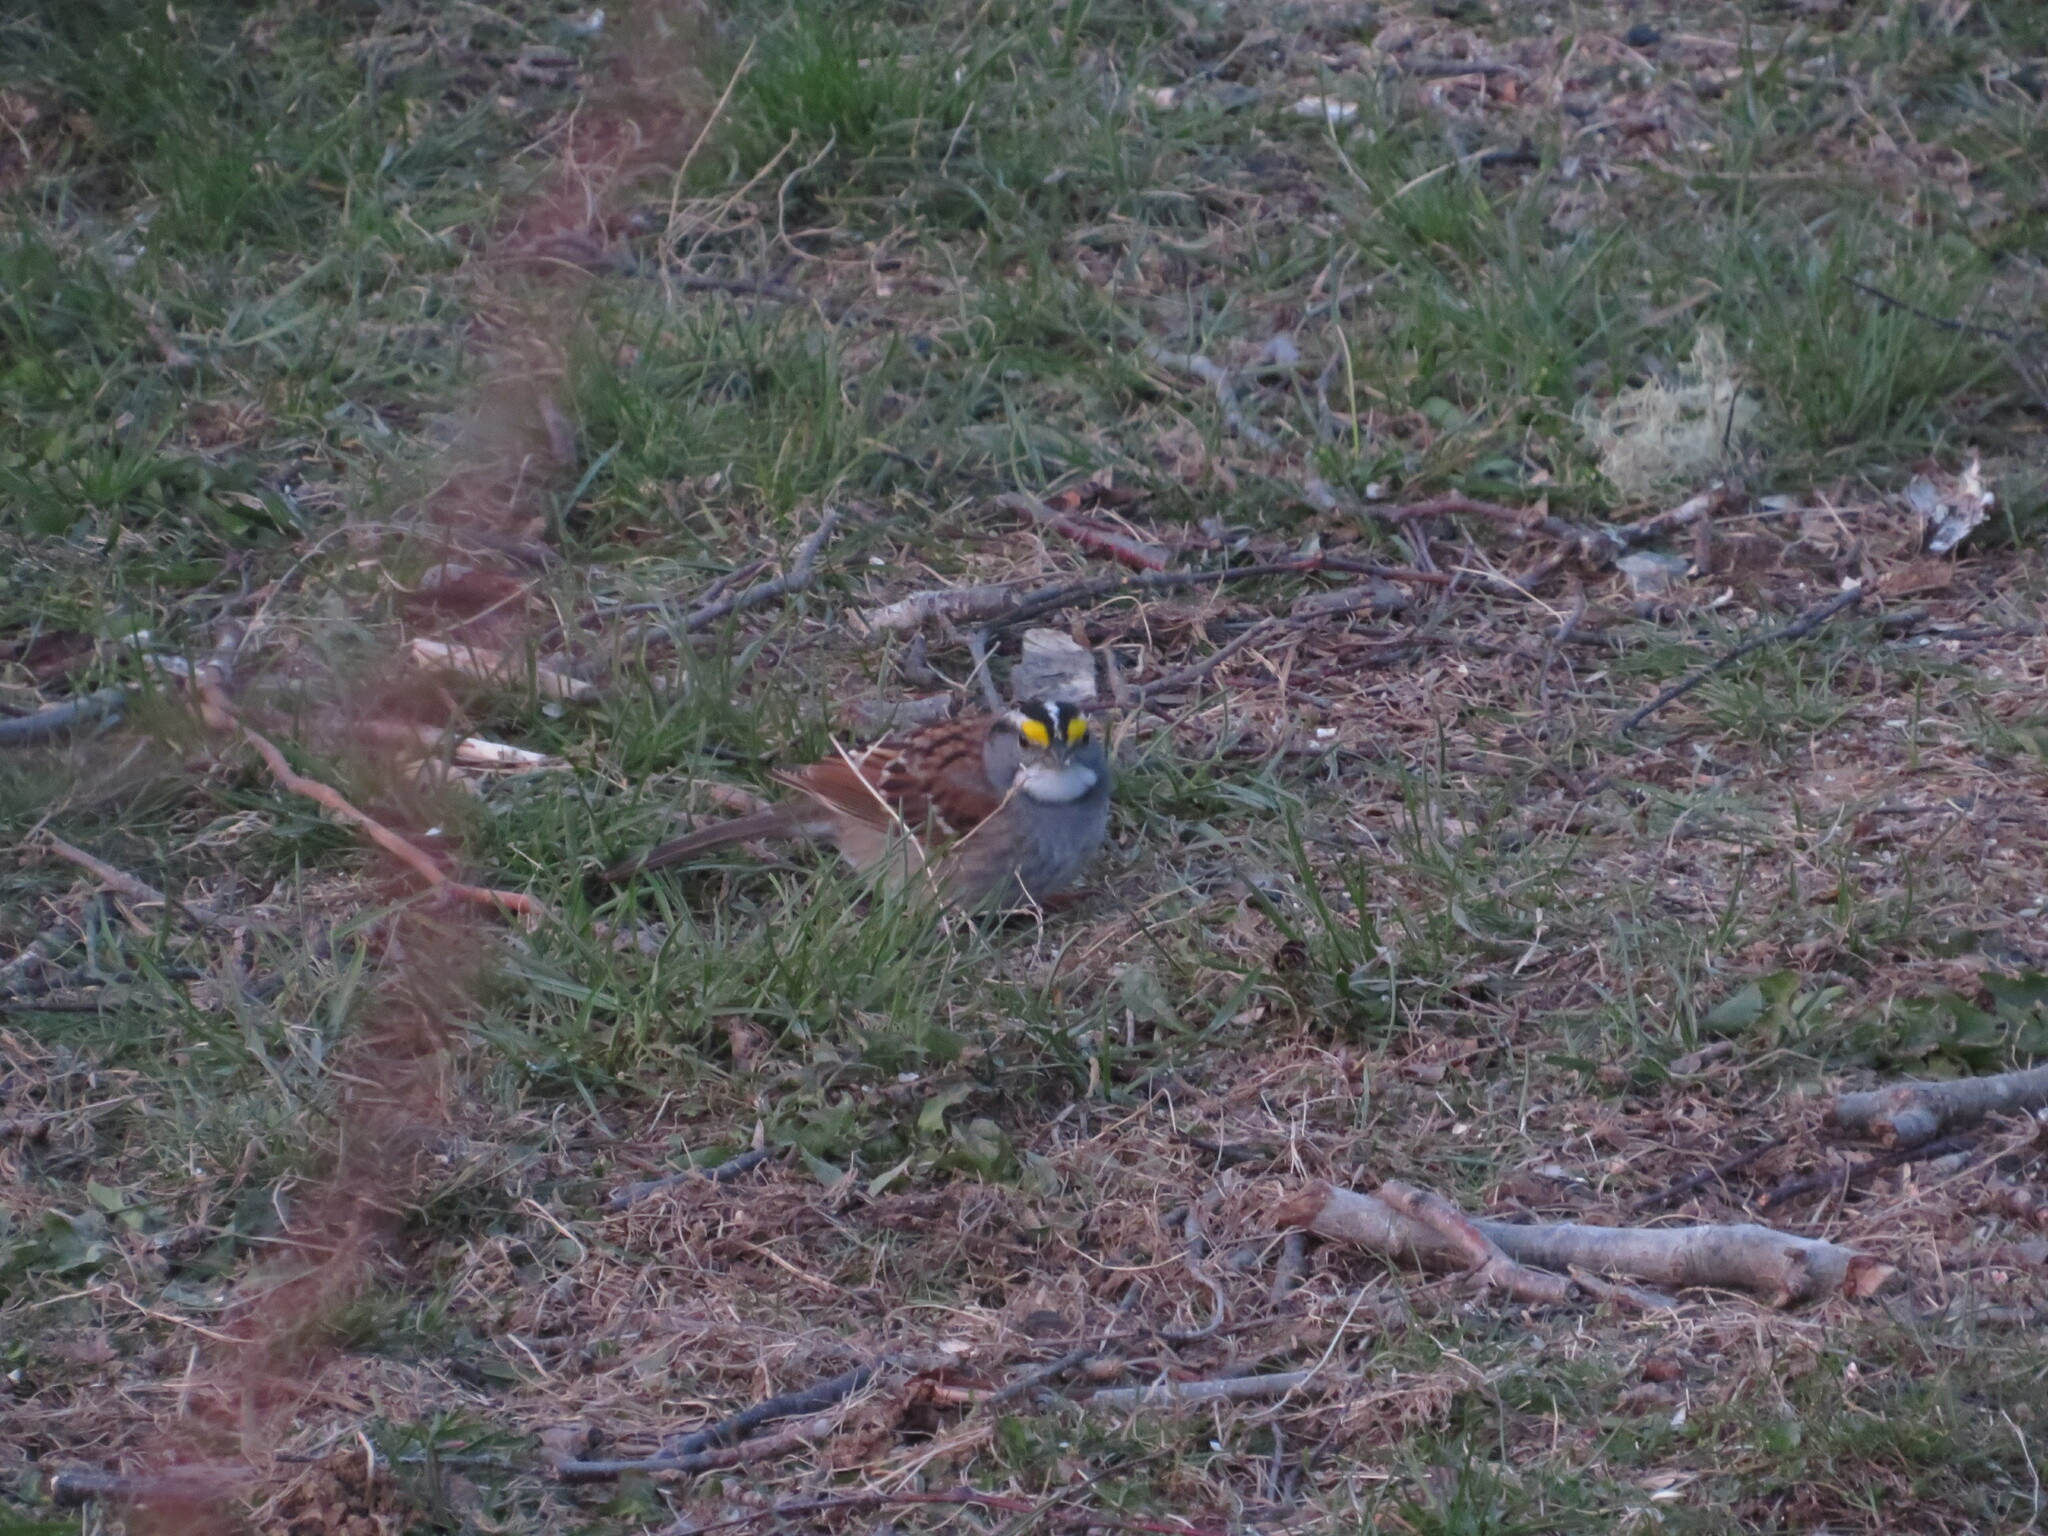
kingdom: Animalia
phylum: Chordata
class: Aves
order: Passeriformes
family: Passerellidae
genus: Zonotrichia
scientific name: Zonotrichia albicollis
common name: White-throated sparrow
